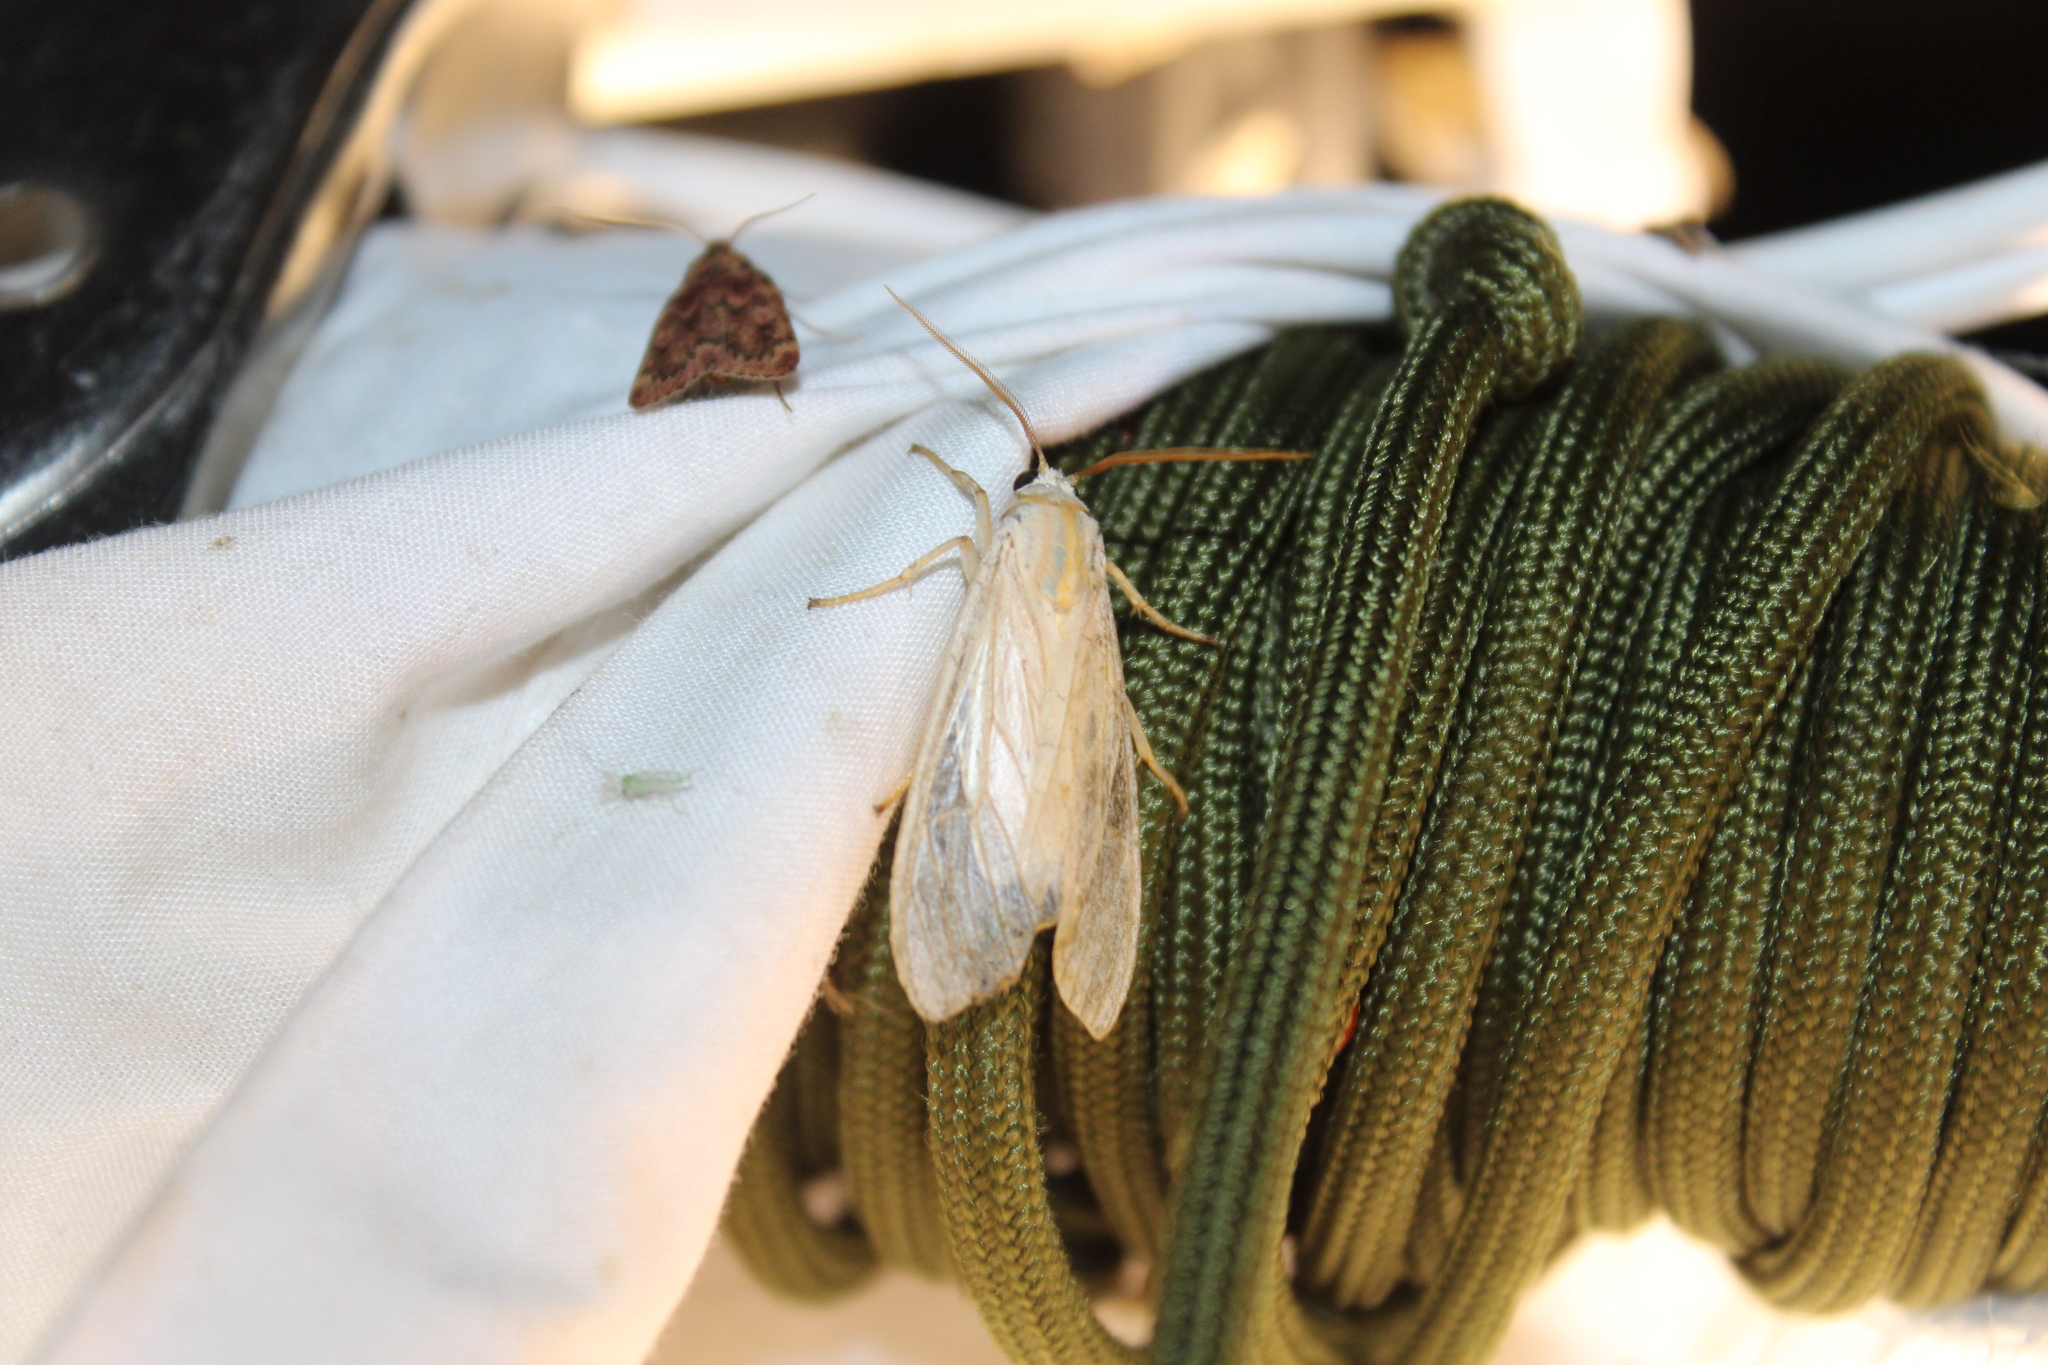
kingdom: Animalia
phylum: Arthropoda
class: Insecta
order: Lepidoptera
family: Erebidae
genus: Halysidota
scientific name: Halysidota
